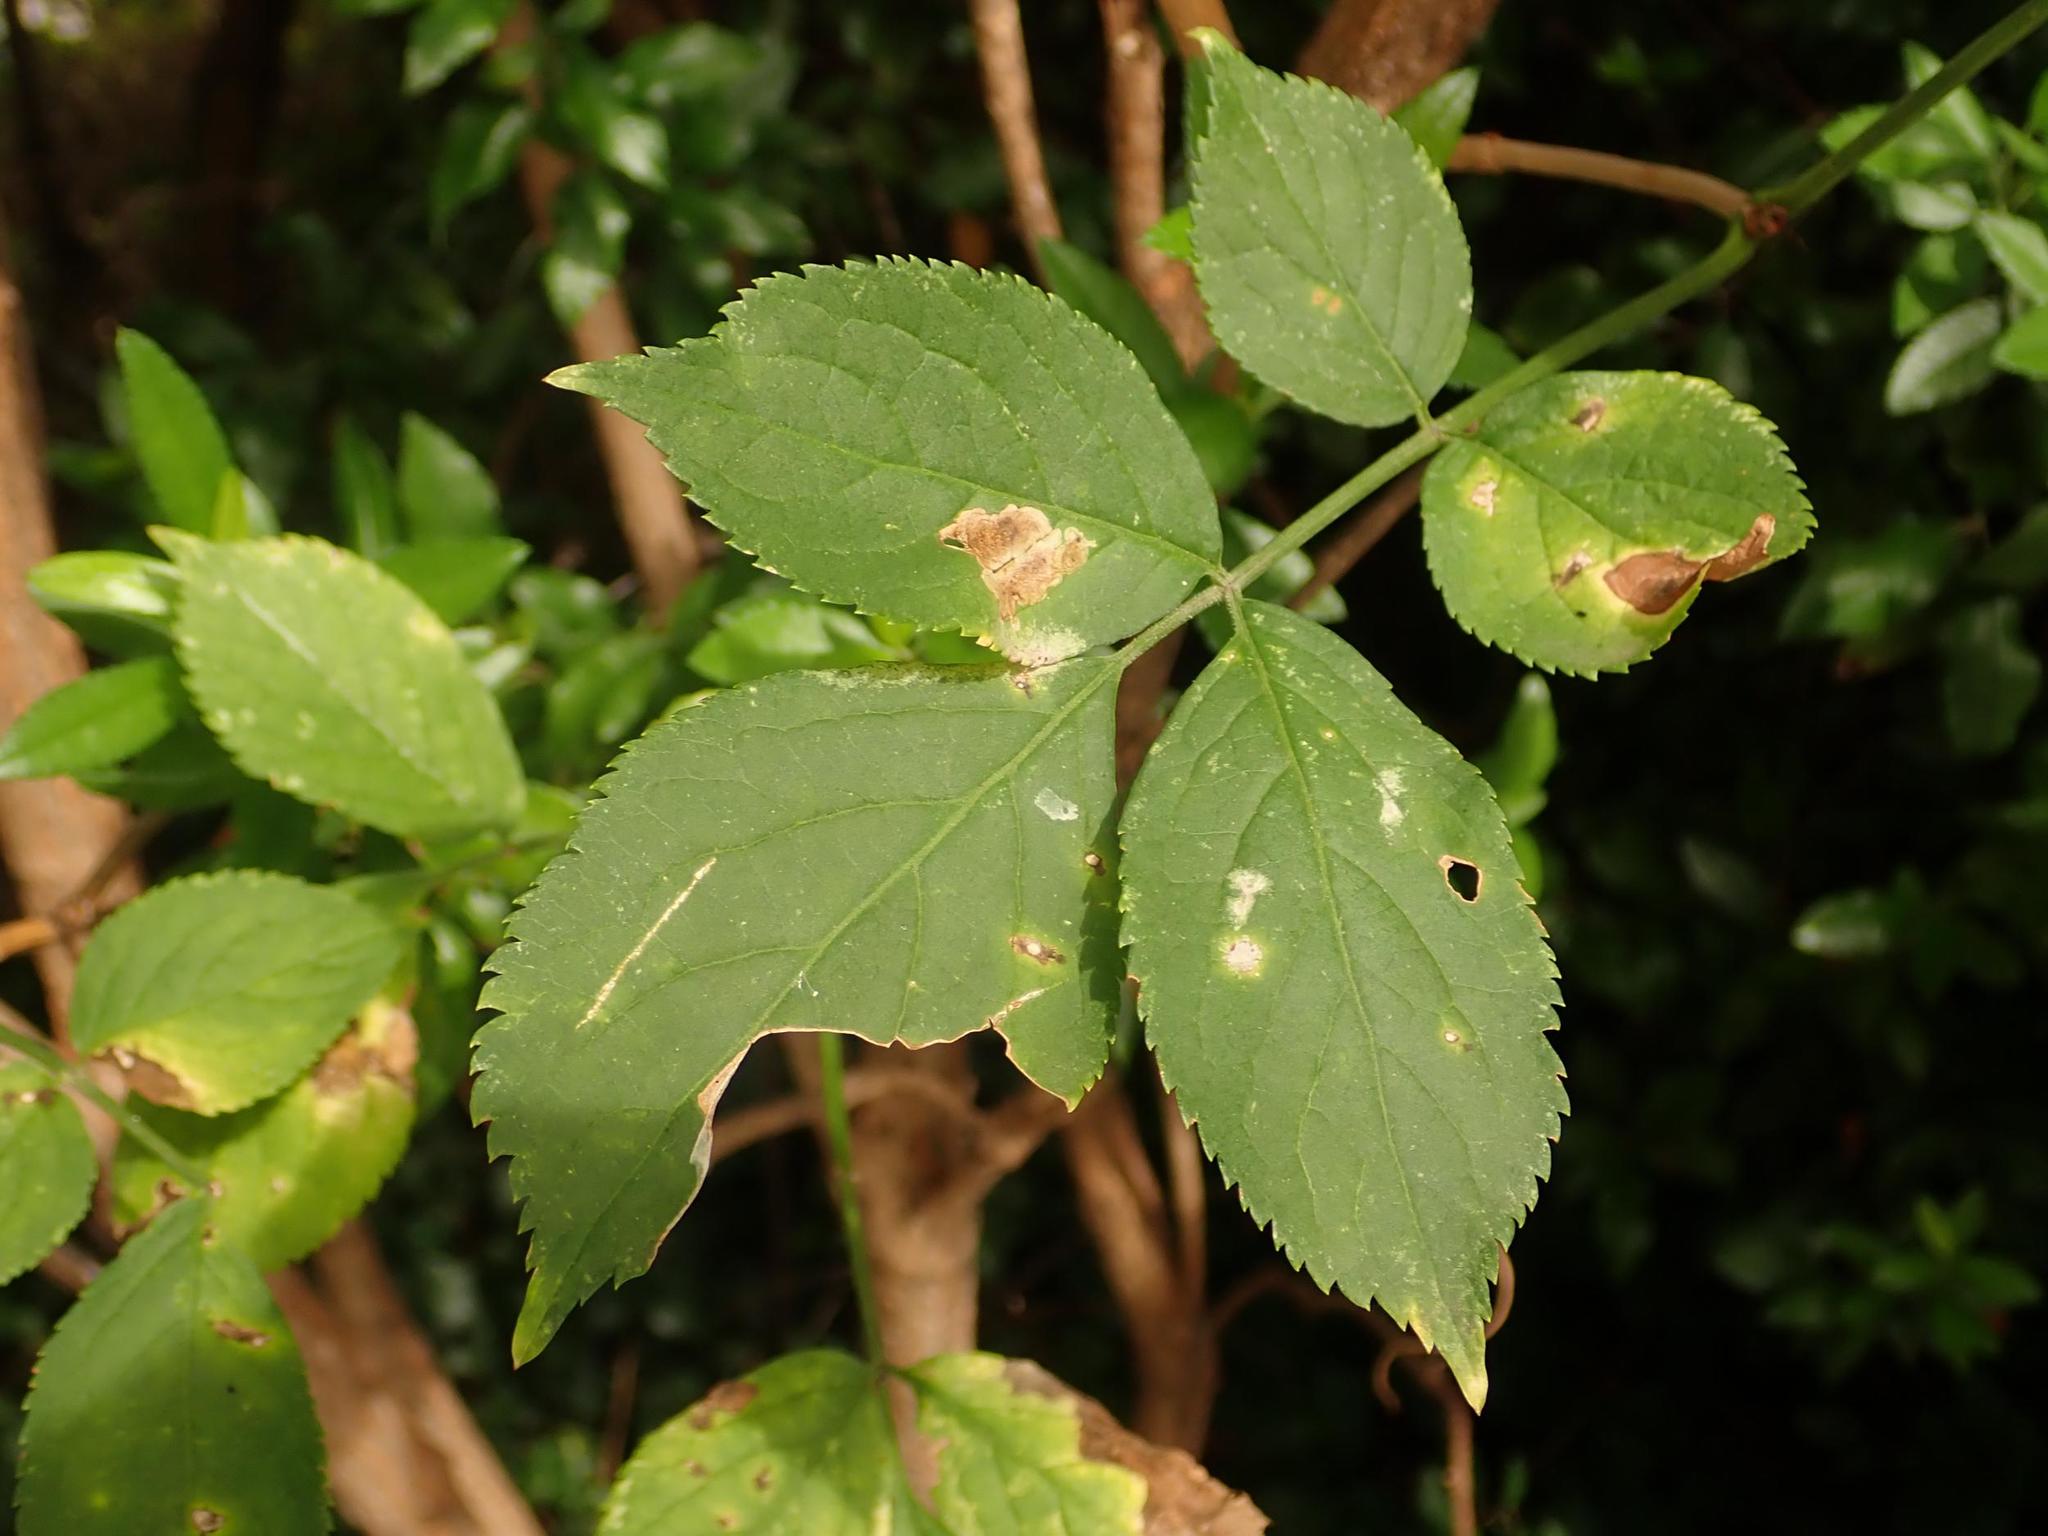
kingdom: Plantae
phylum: Tracheophyta
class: Magnoliopsida
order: Dipsacales
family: Viburnaceae
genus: Sambucus
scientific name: Sambucus nigra
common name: Elder
